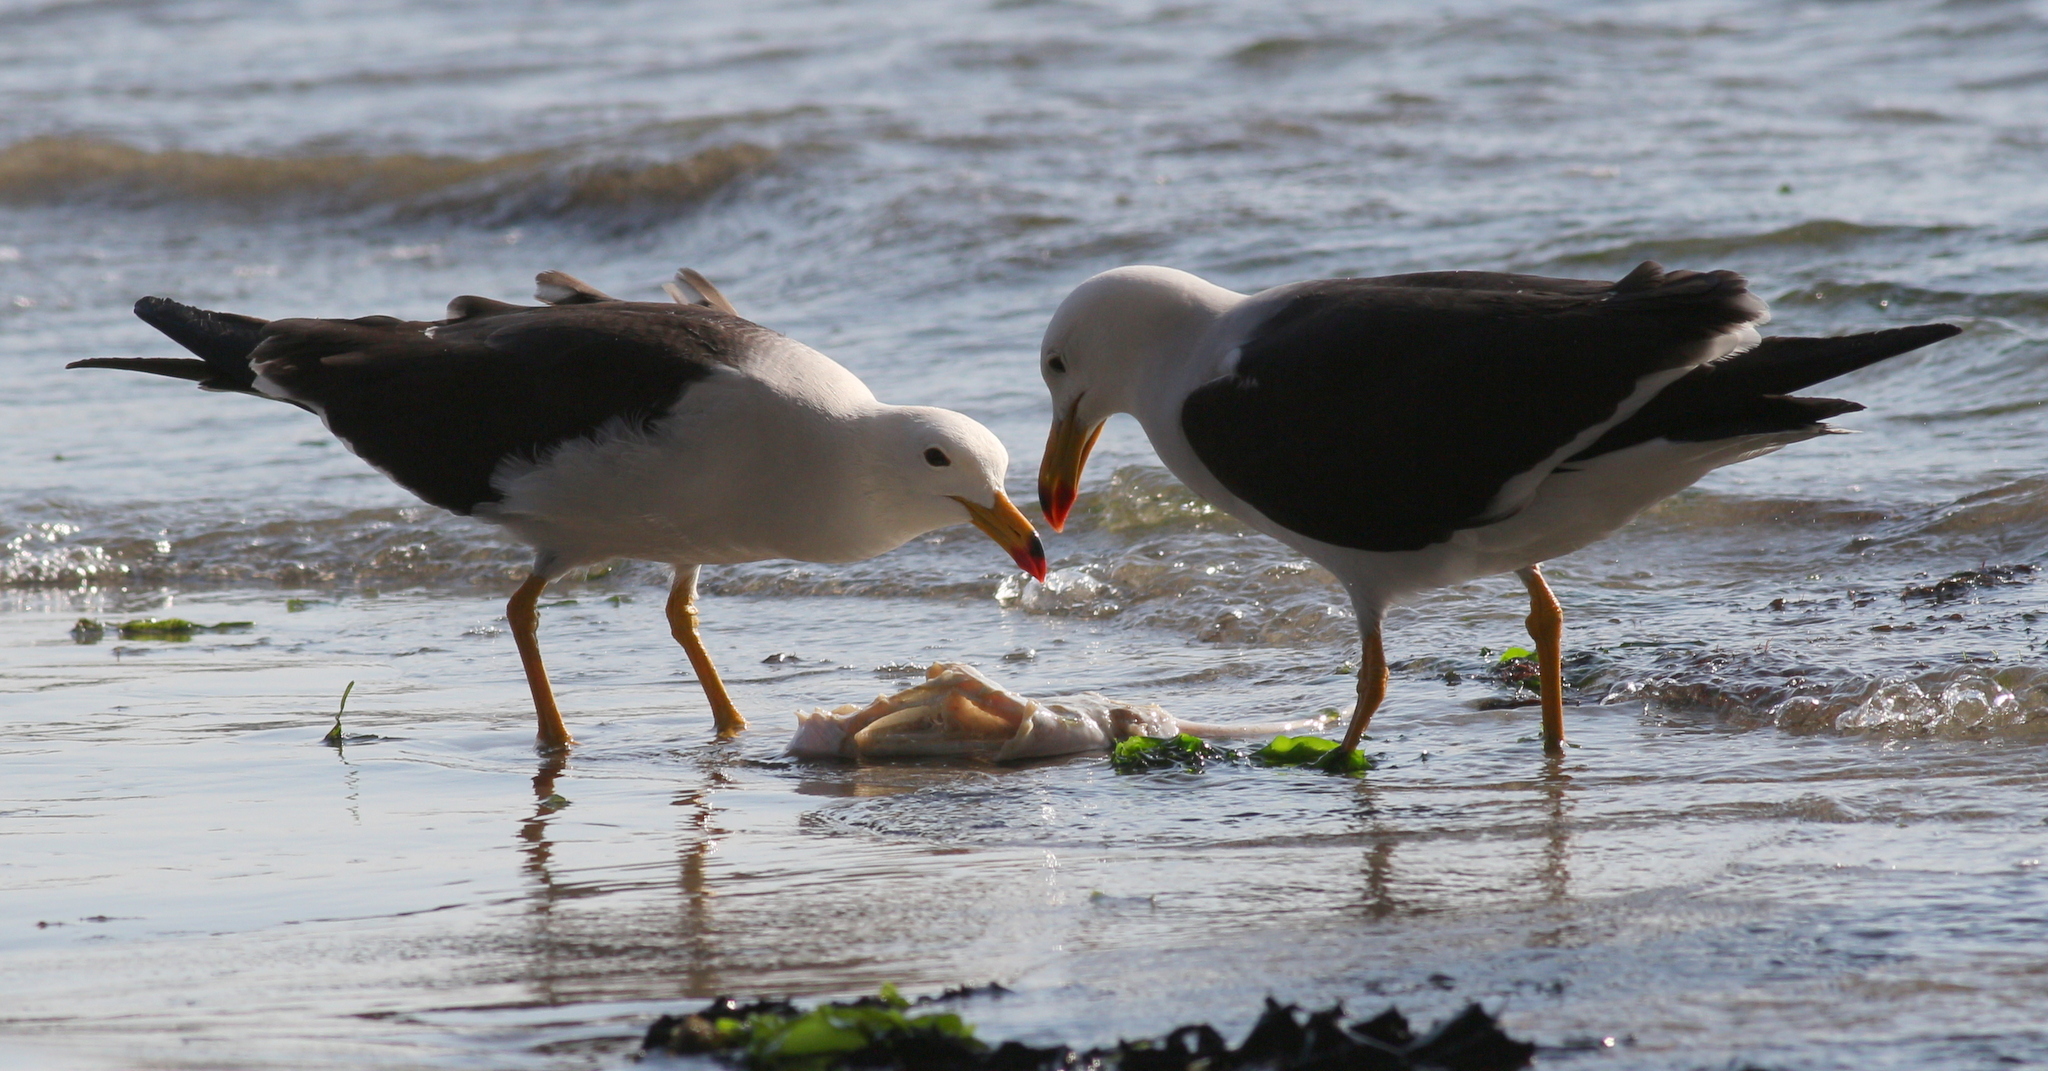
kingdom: Animalia
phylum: Chordata
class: Aves
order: Charadriiformes
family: Laridae
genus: Larus
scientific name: Larus belcheri
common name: Belcher's gull
